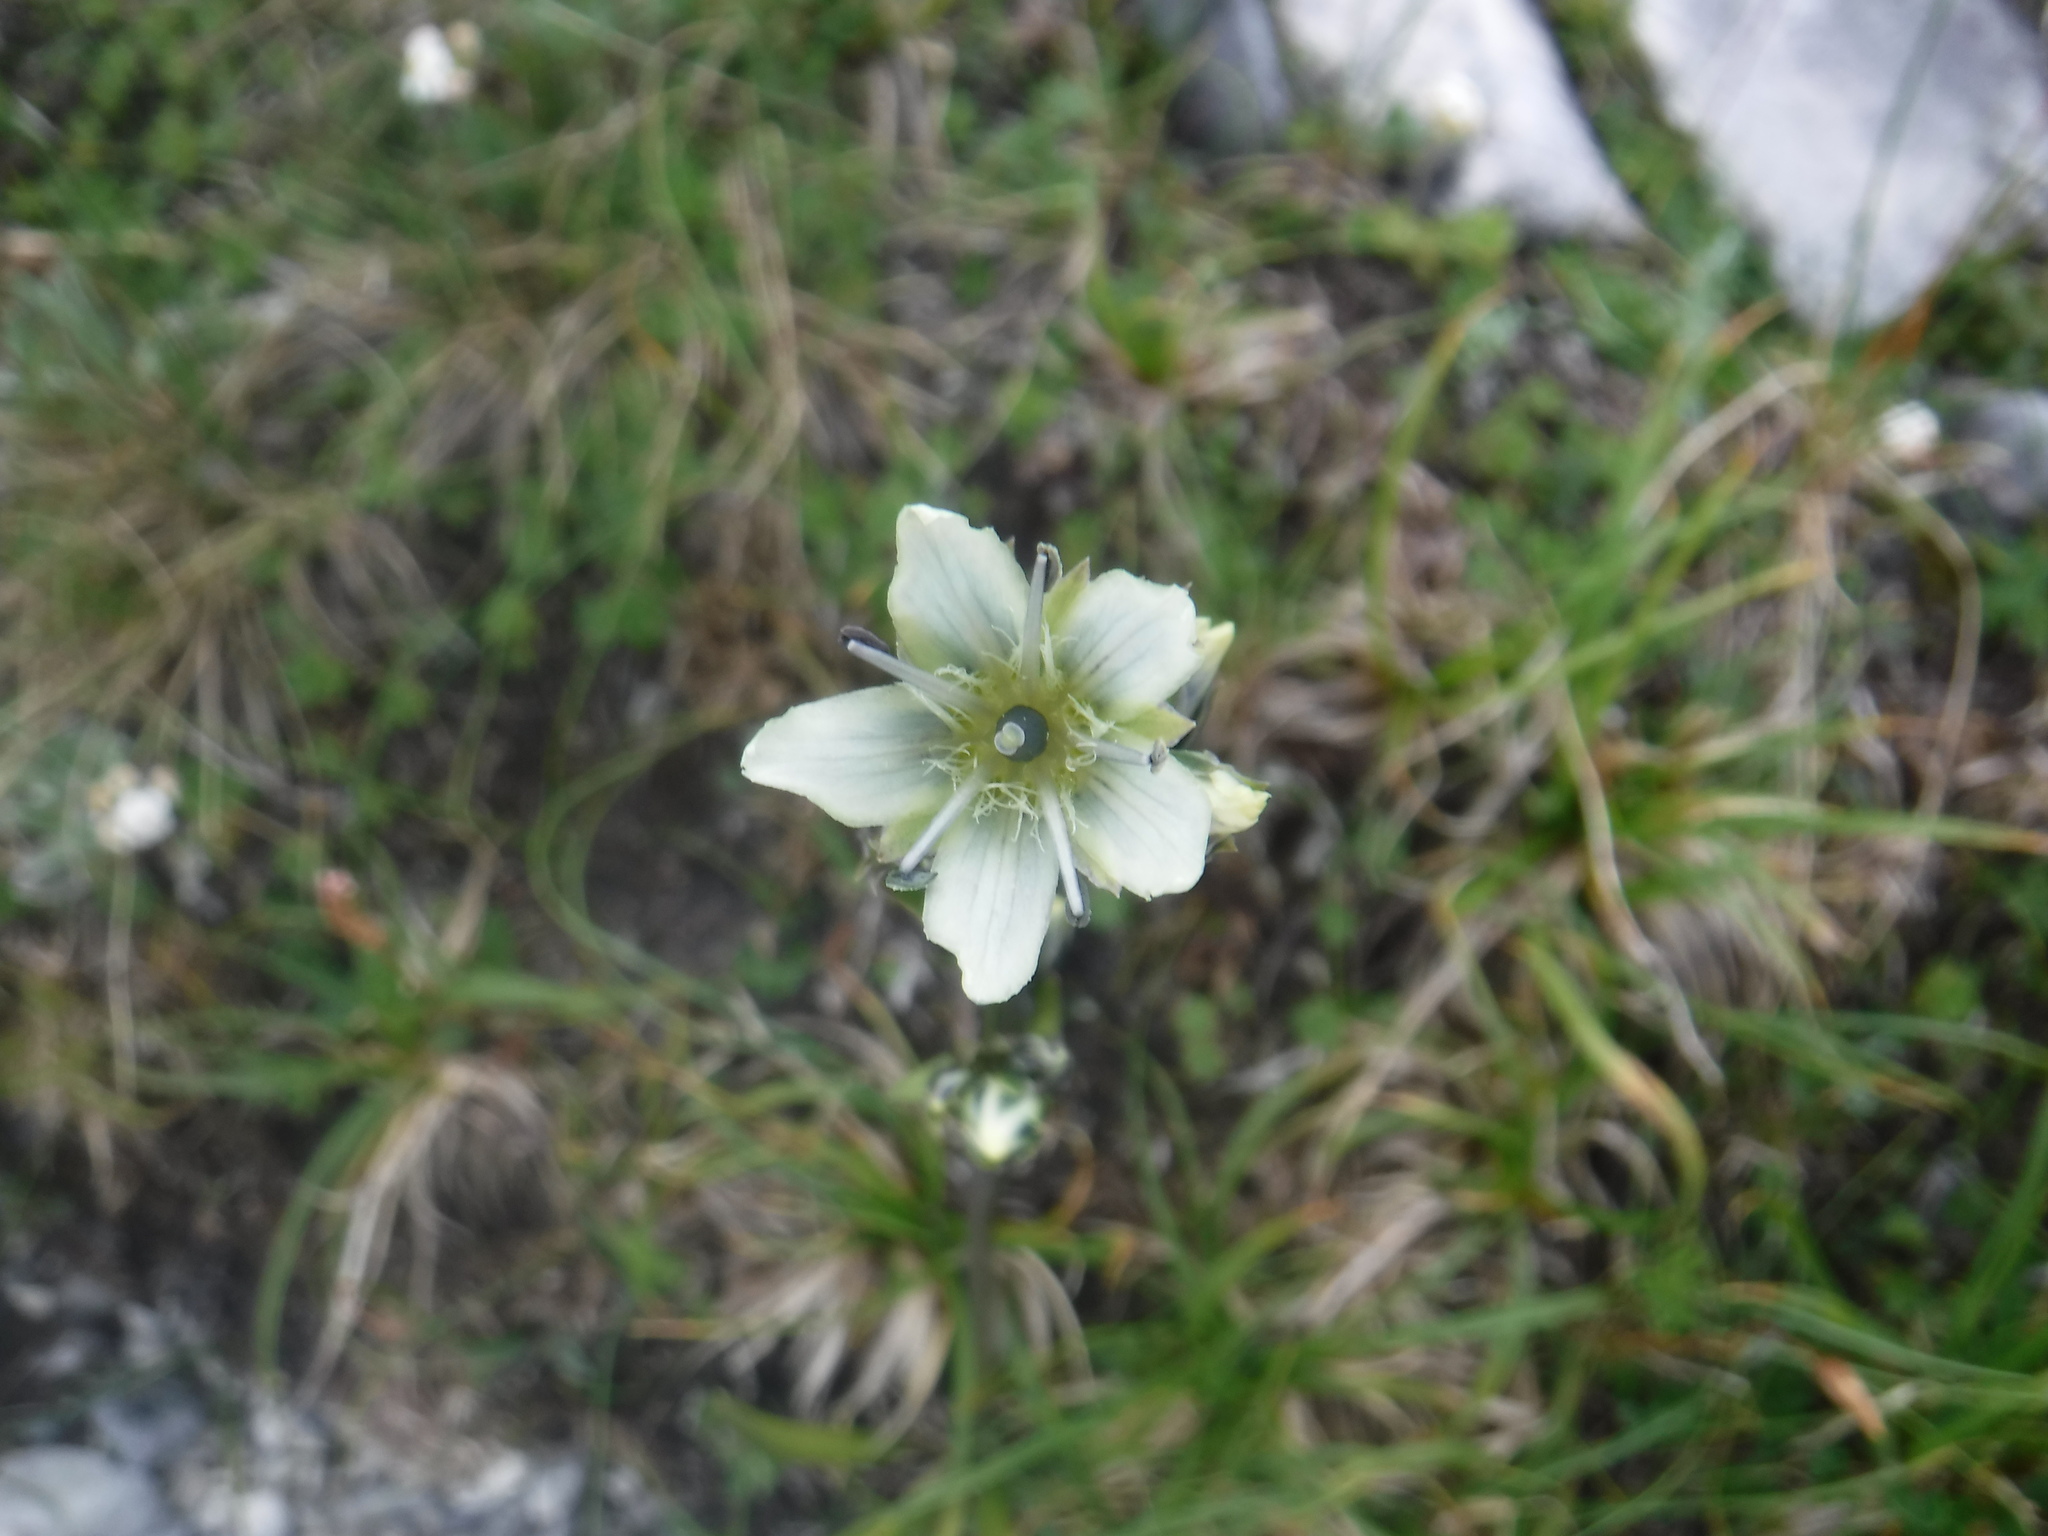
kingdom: Plantae
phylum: Tracheophyta
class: Magnoliopsida
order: Gentianales
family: Gentianaceae
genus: Swertia
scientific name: Swertia marginata
